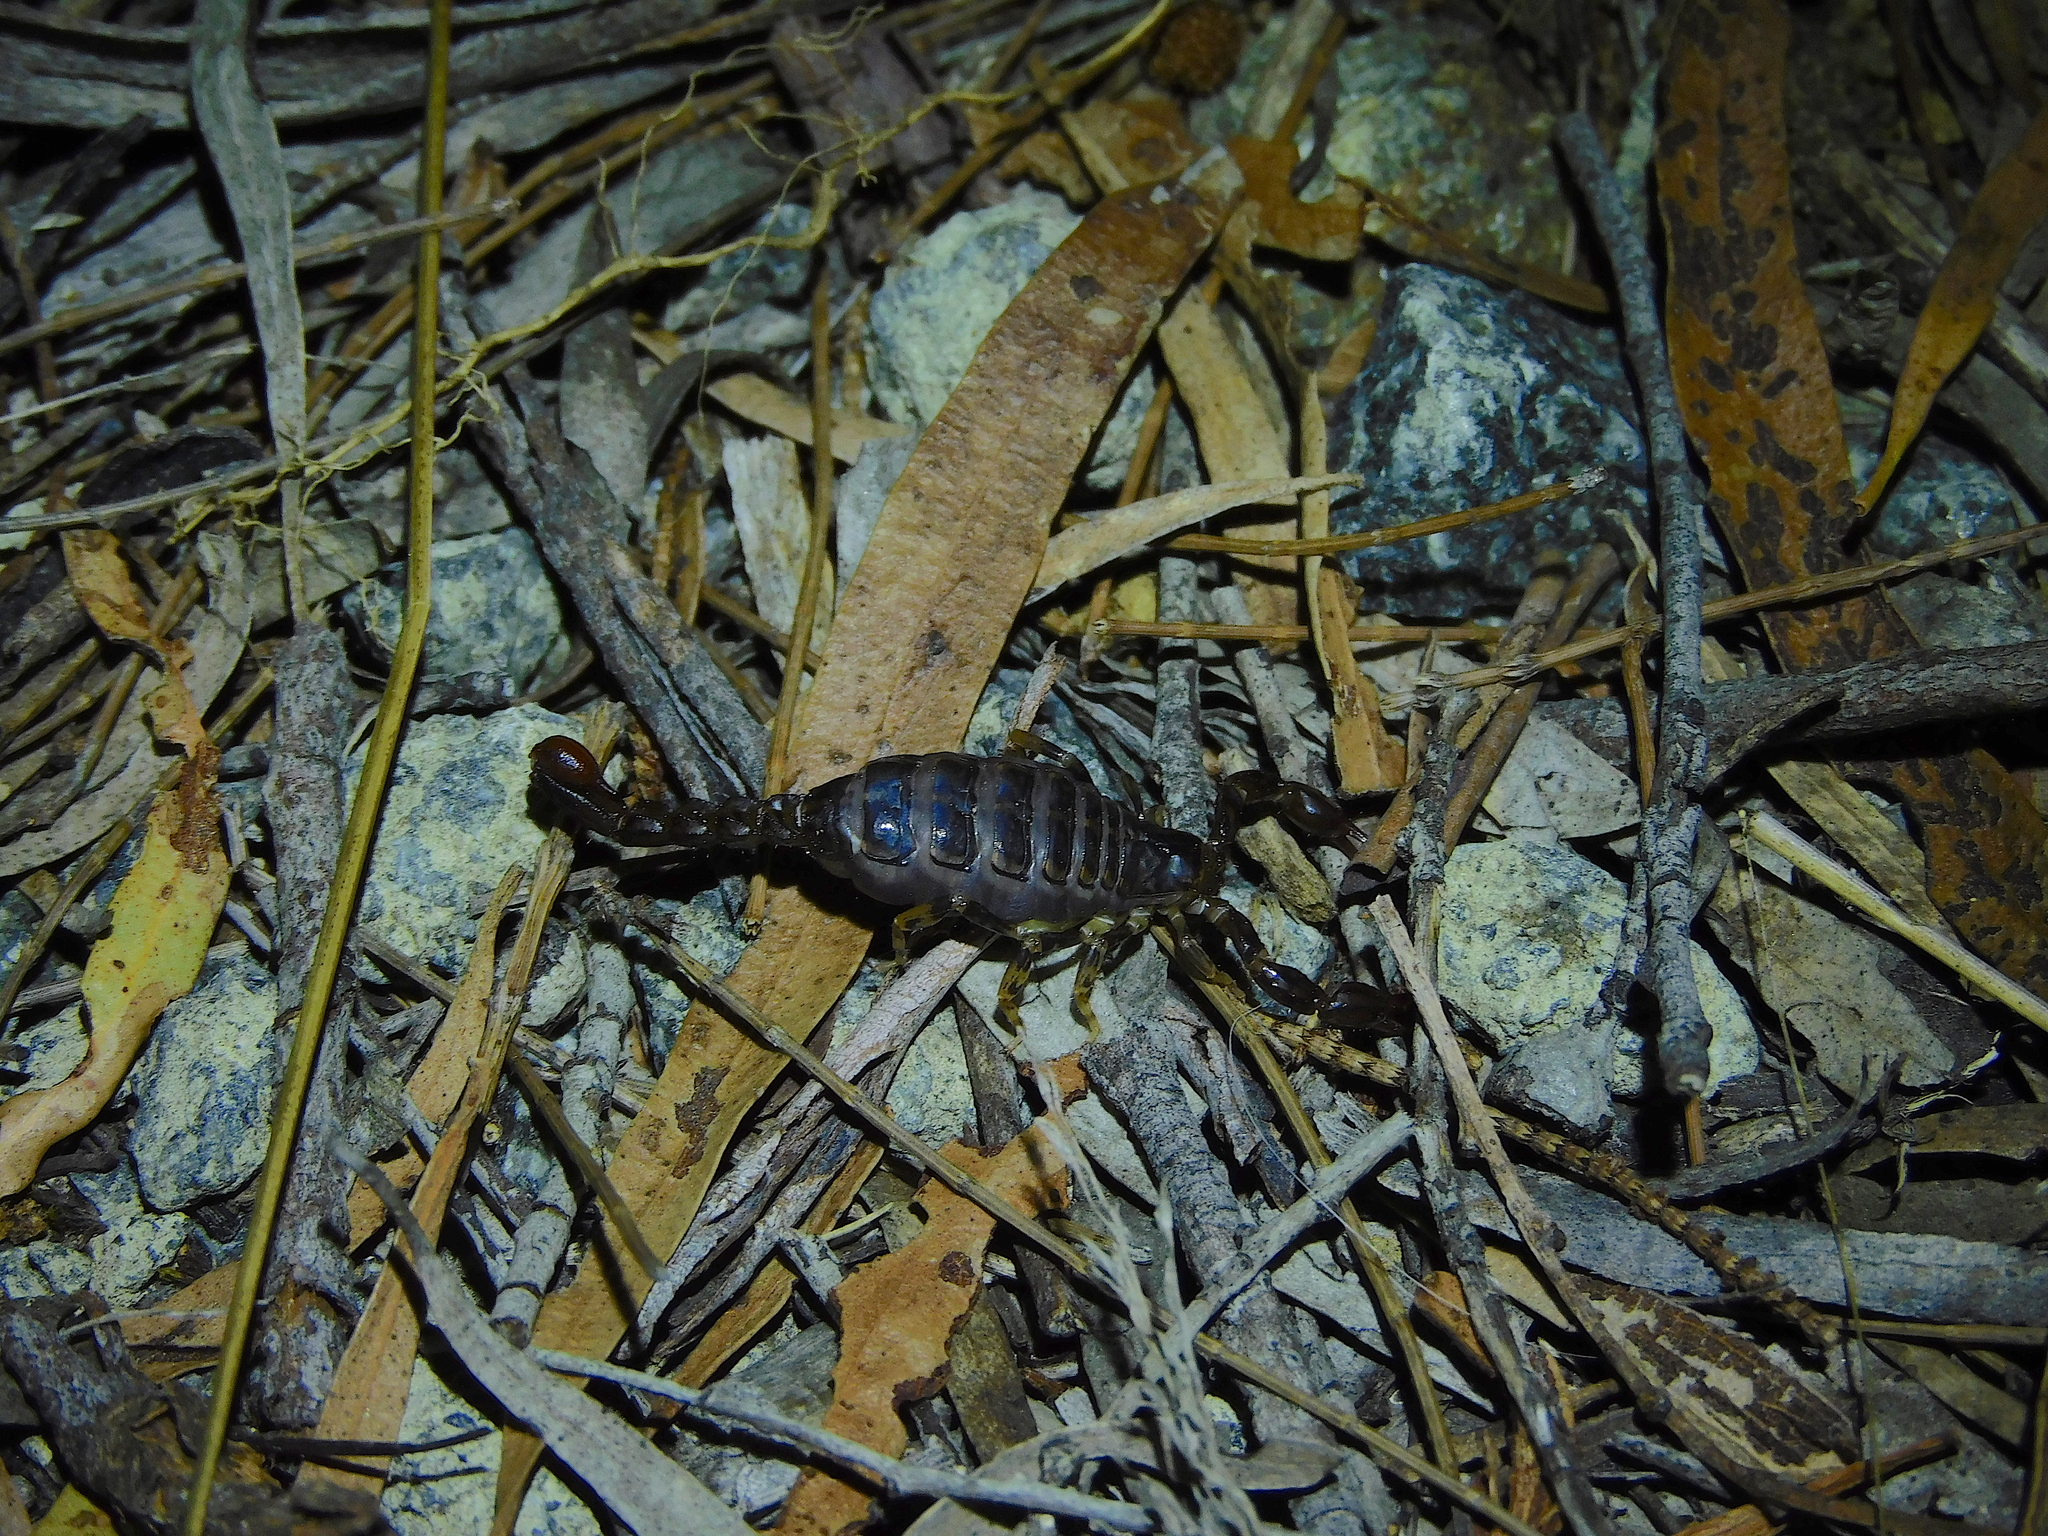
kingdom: Animalia
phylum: Arthropoda
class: Arachnida
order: Scorpiones
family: Bothriuridae
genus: Cercophonius
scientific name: Cercophonius squama
